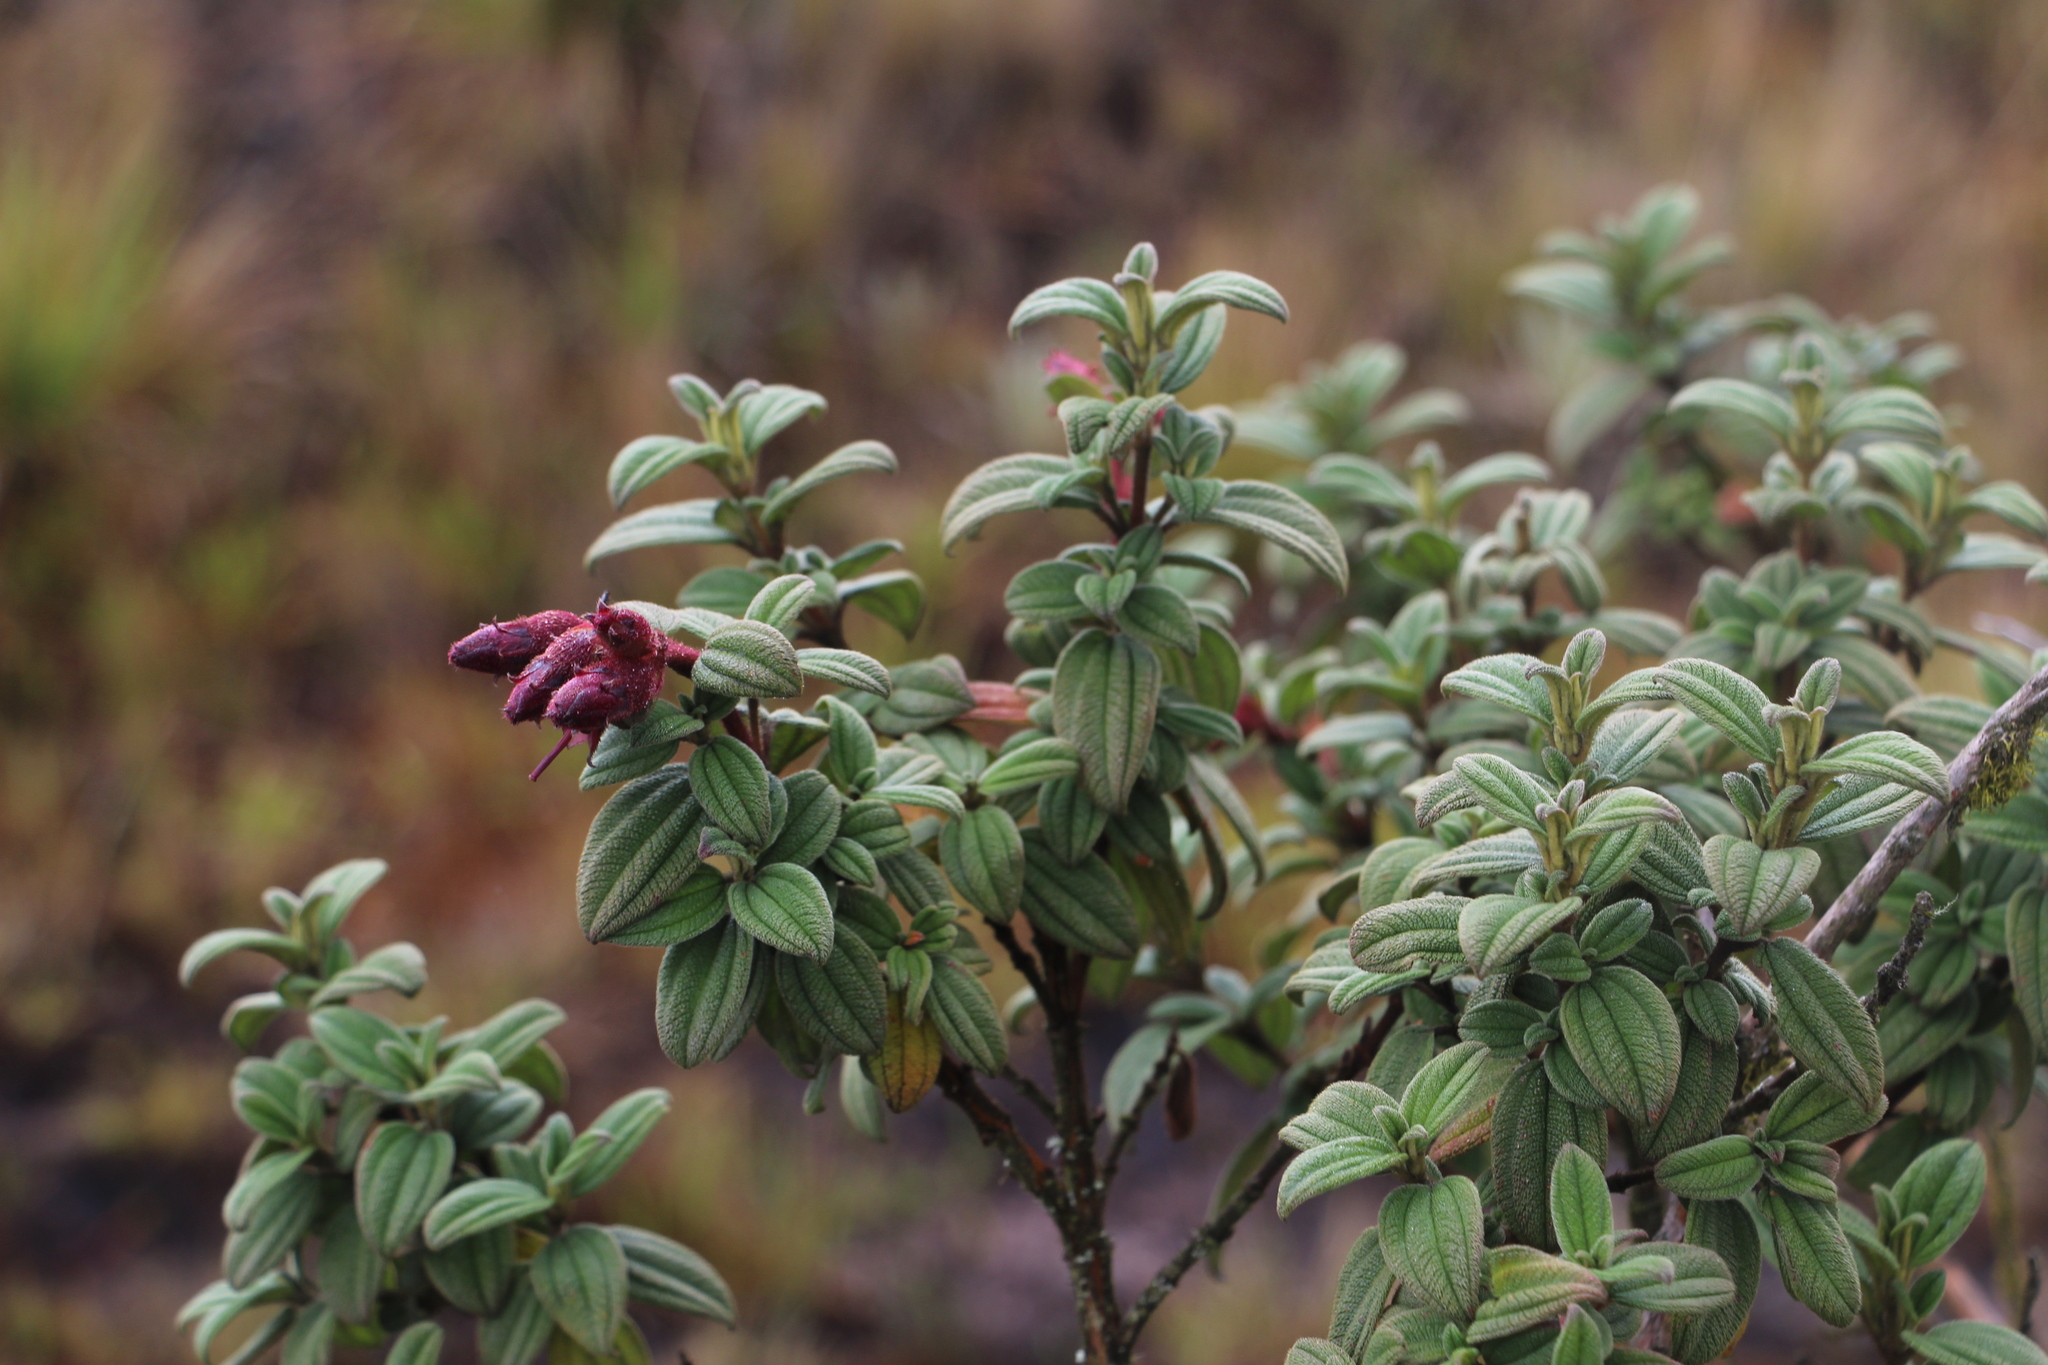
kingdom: Plantae
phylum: Tracheophyta
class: Magnoliopsida
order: Myrtales
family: Melastomataceae
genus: Chaetogastra
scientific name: Chaetogastra grossa
